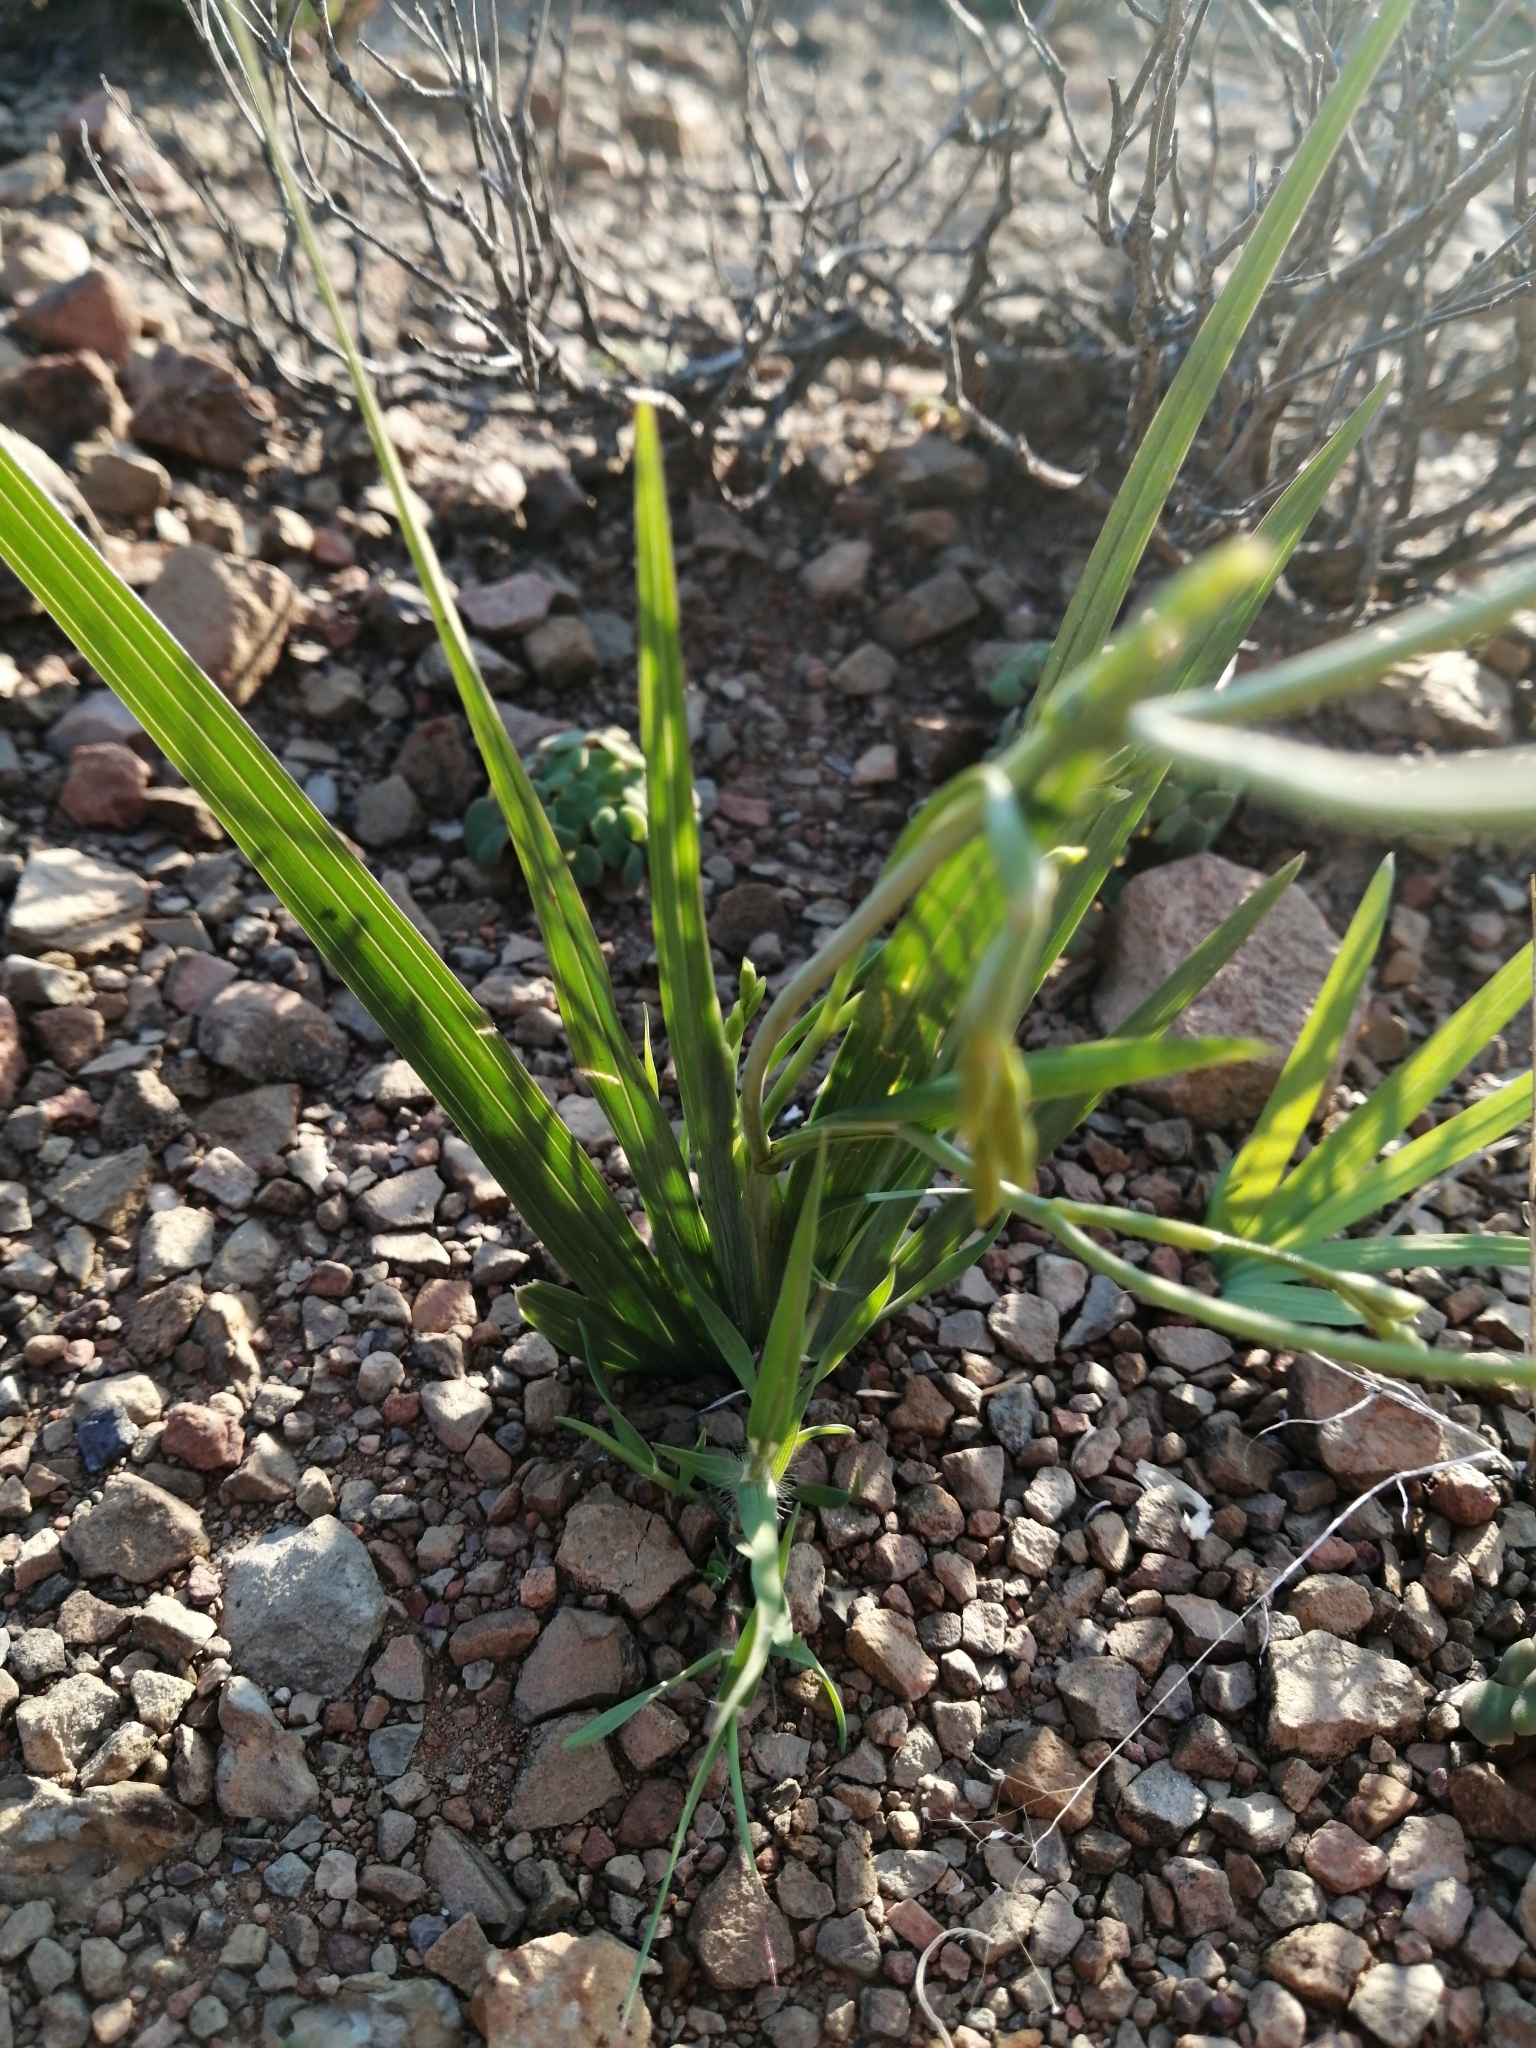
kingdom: Plantae
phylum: Tracheophyta
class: Liliopsida
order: Asparagales
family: Iridaceae
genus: Freesia
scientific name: Freesia refracta
